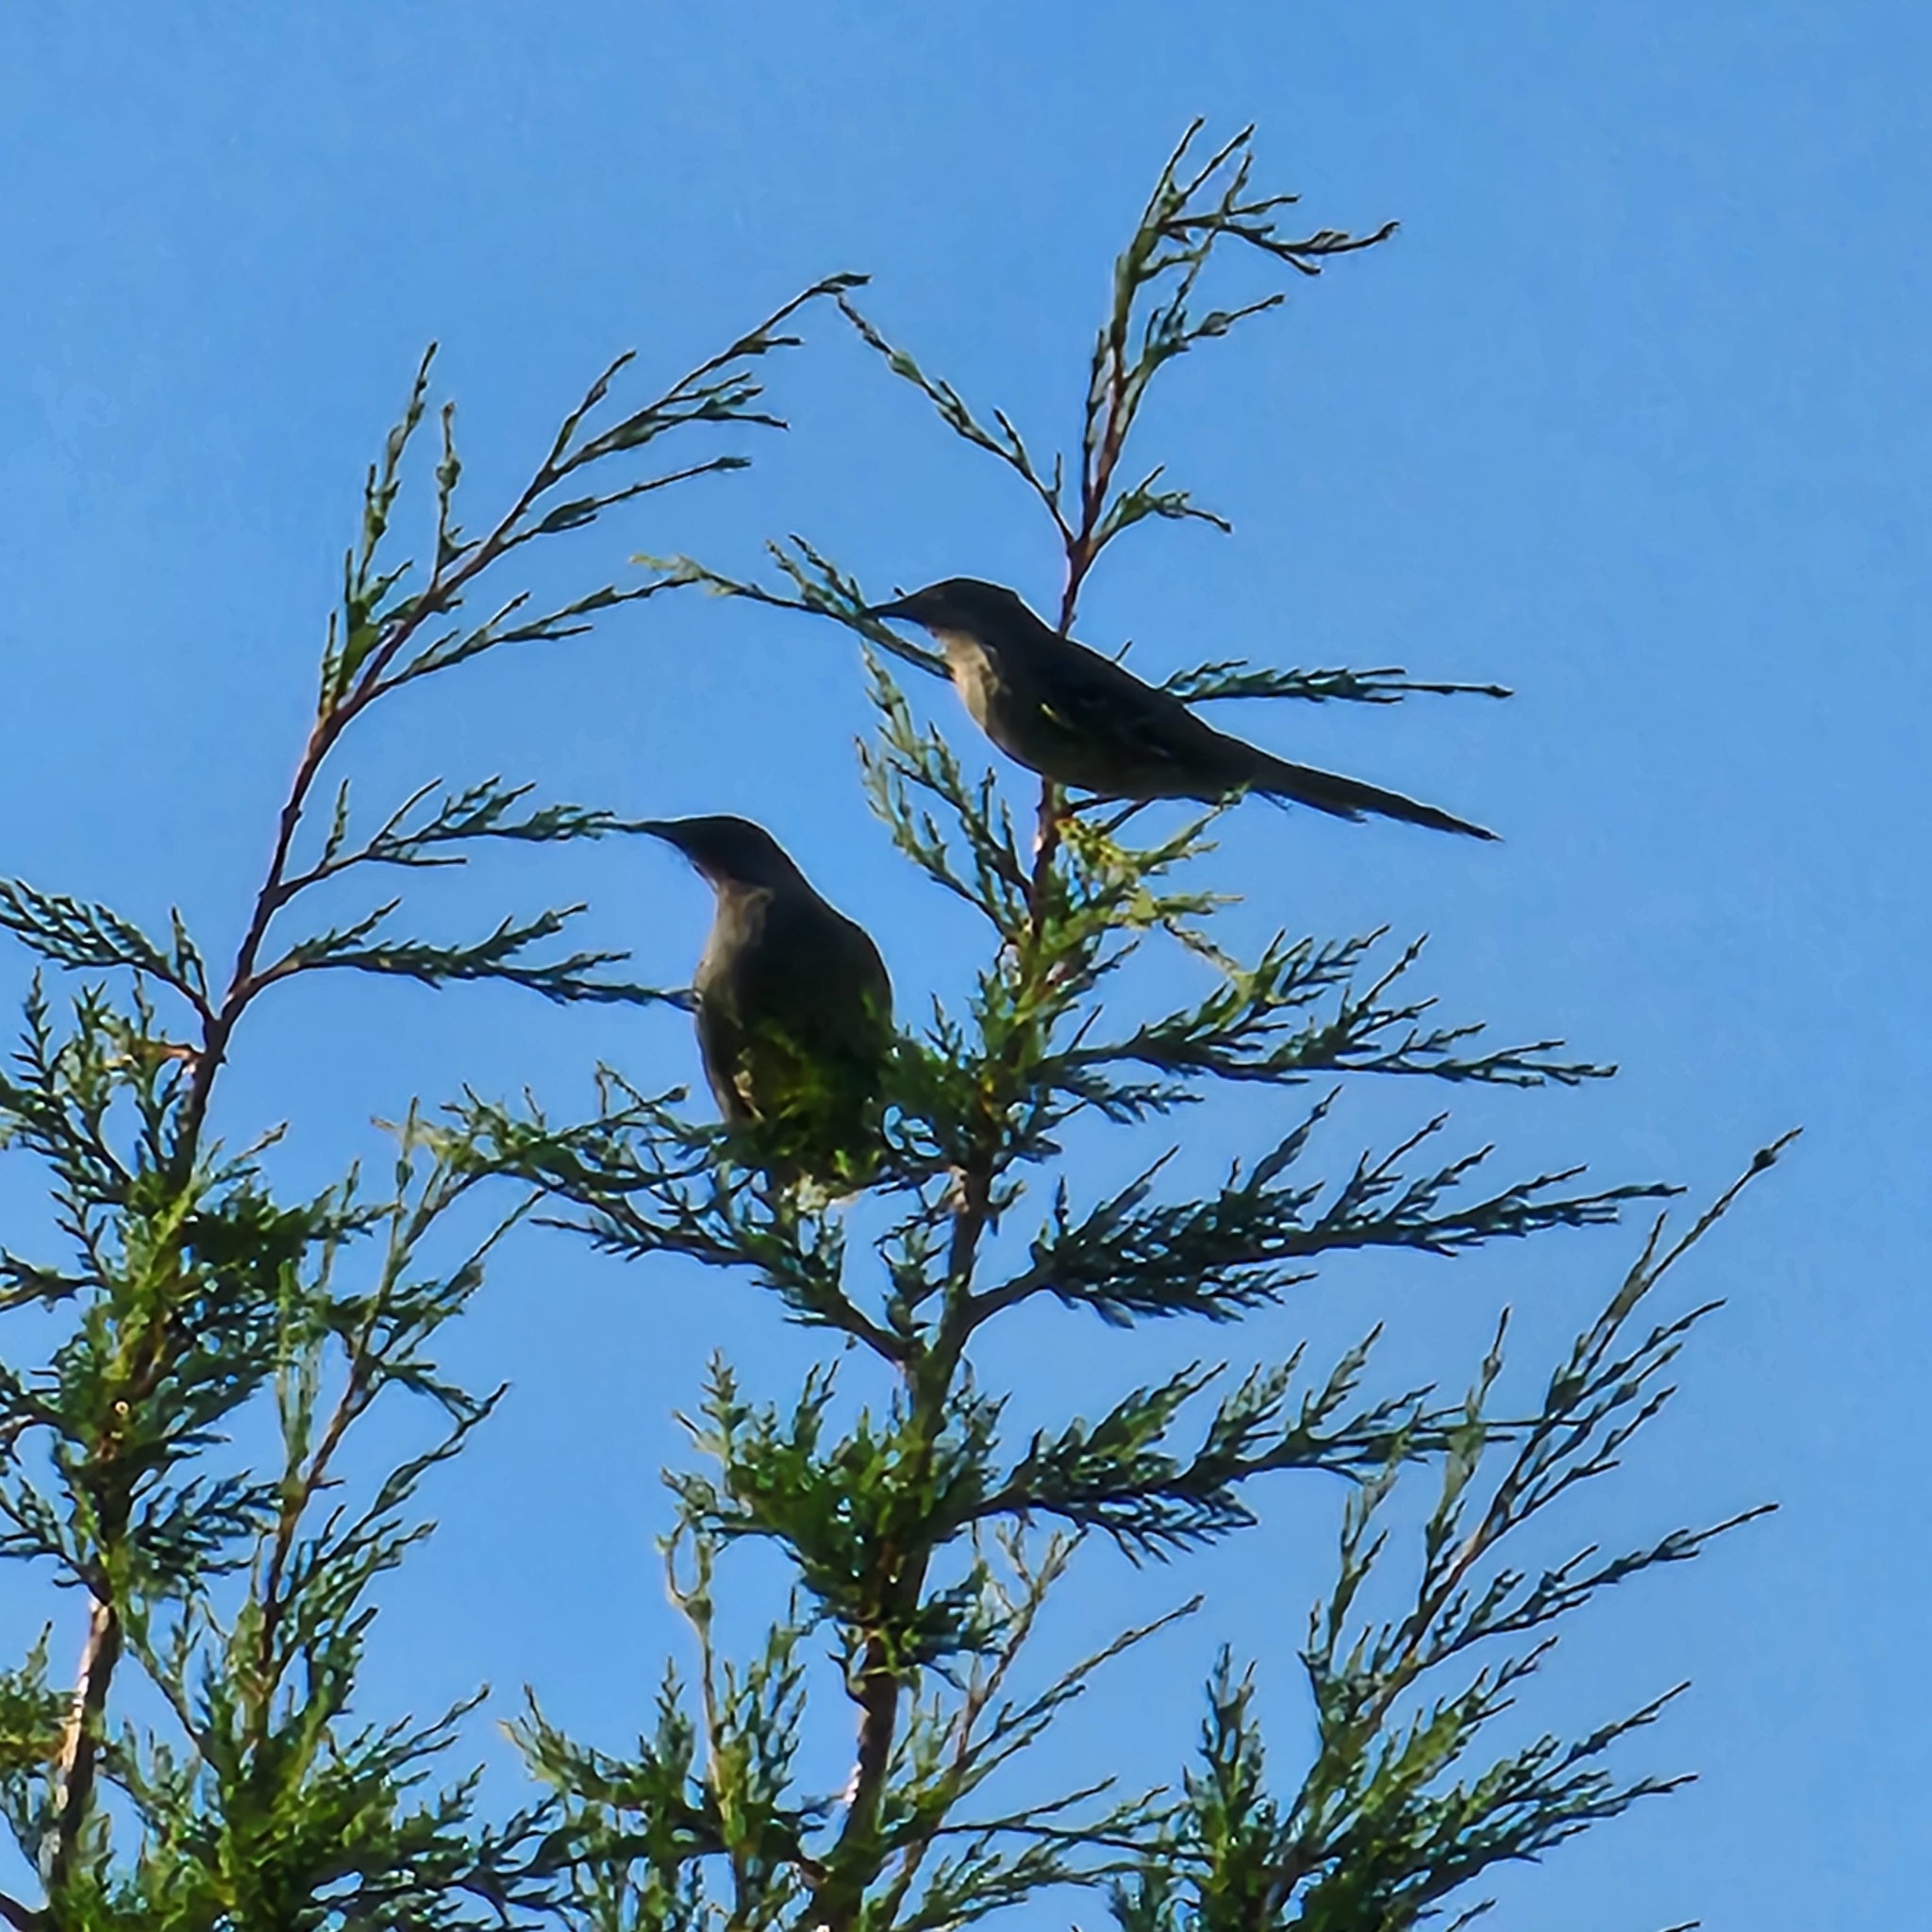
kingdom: Animalia
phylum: Chordata
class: Aves
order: Passeriformes
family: Meliphagidae
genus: Anthochaera
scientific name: Anthochaera chrysoptera
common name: Little wattlebird
